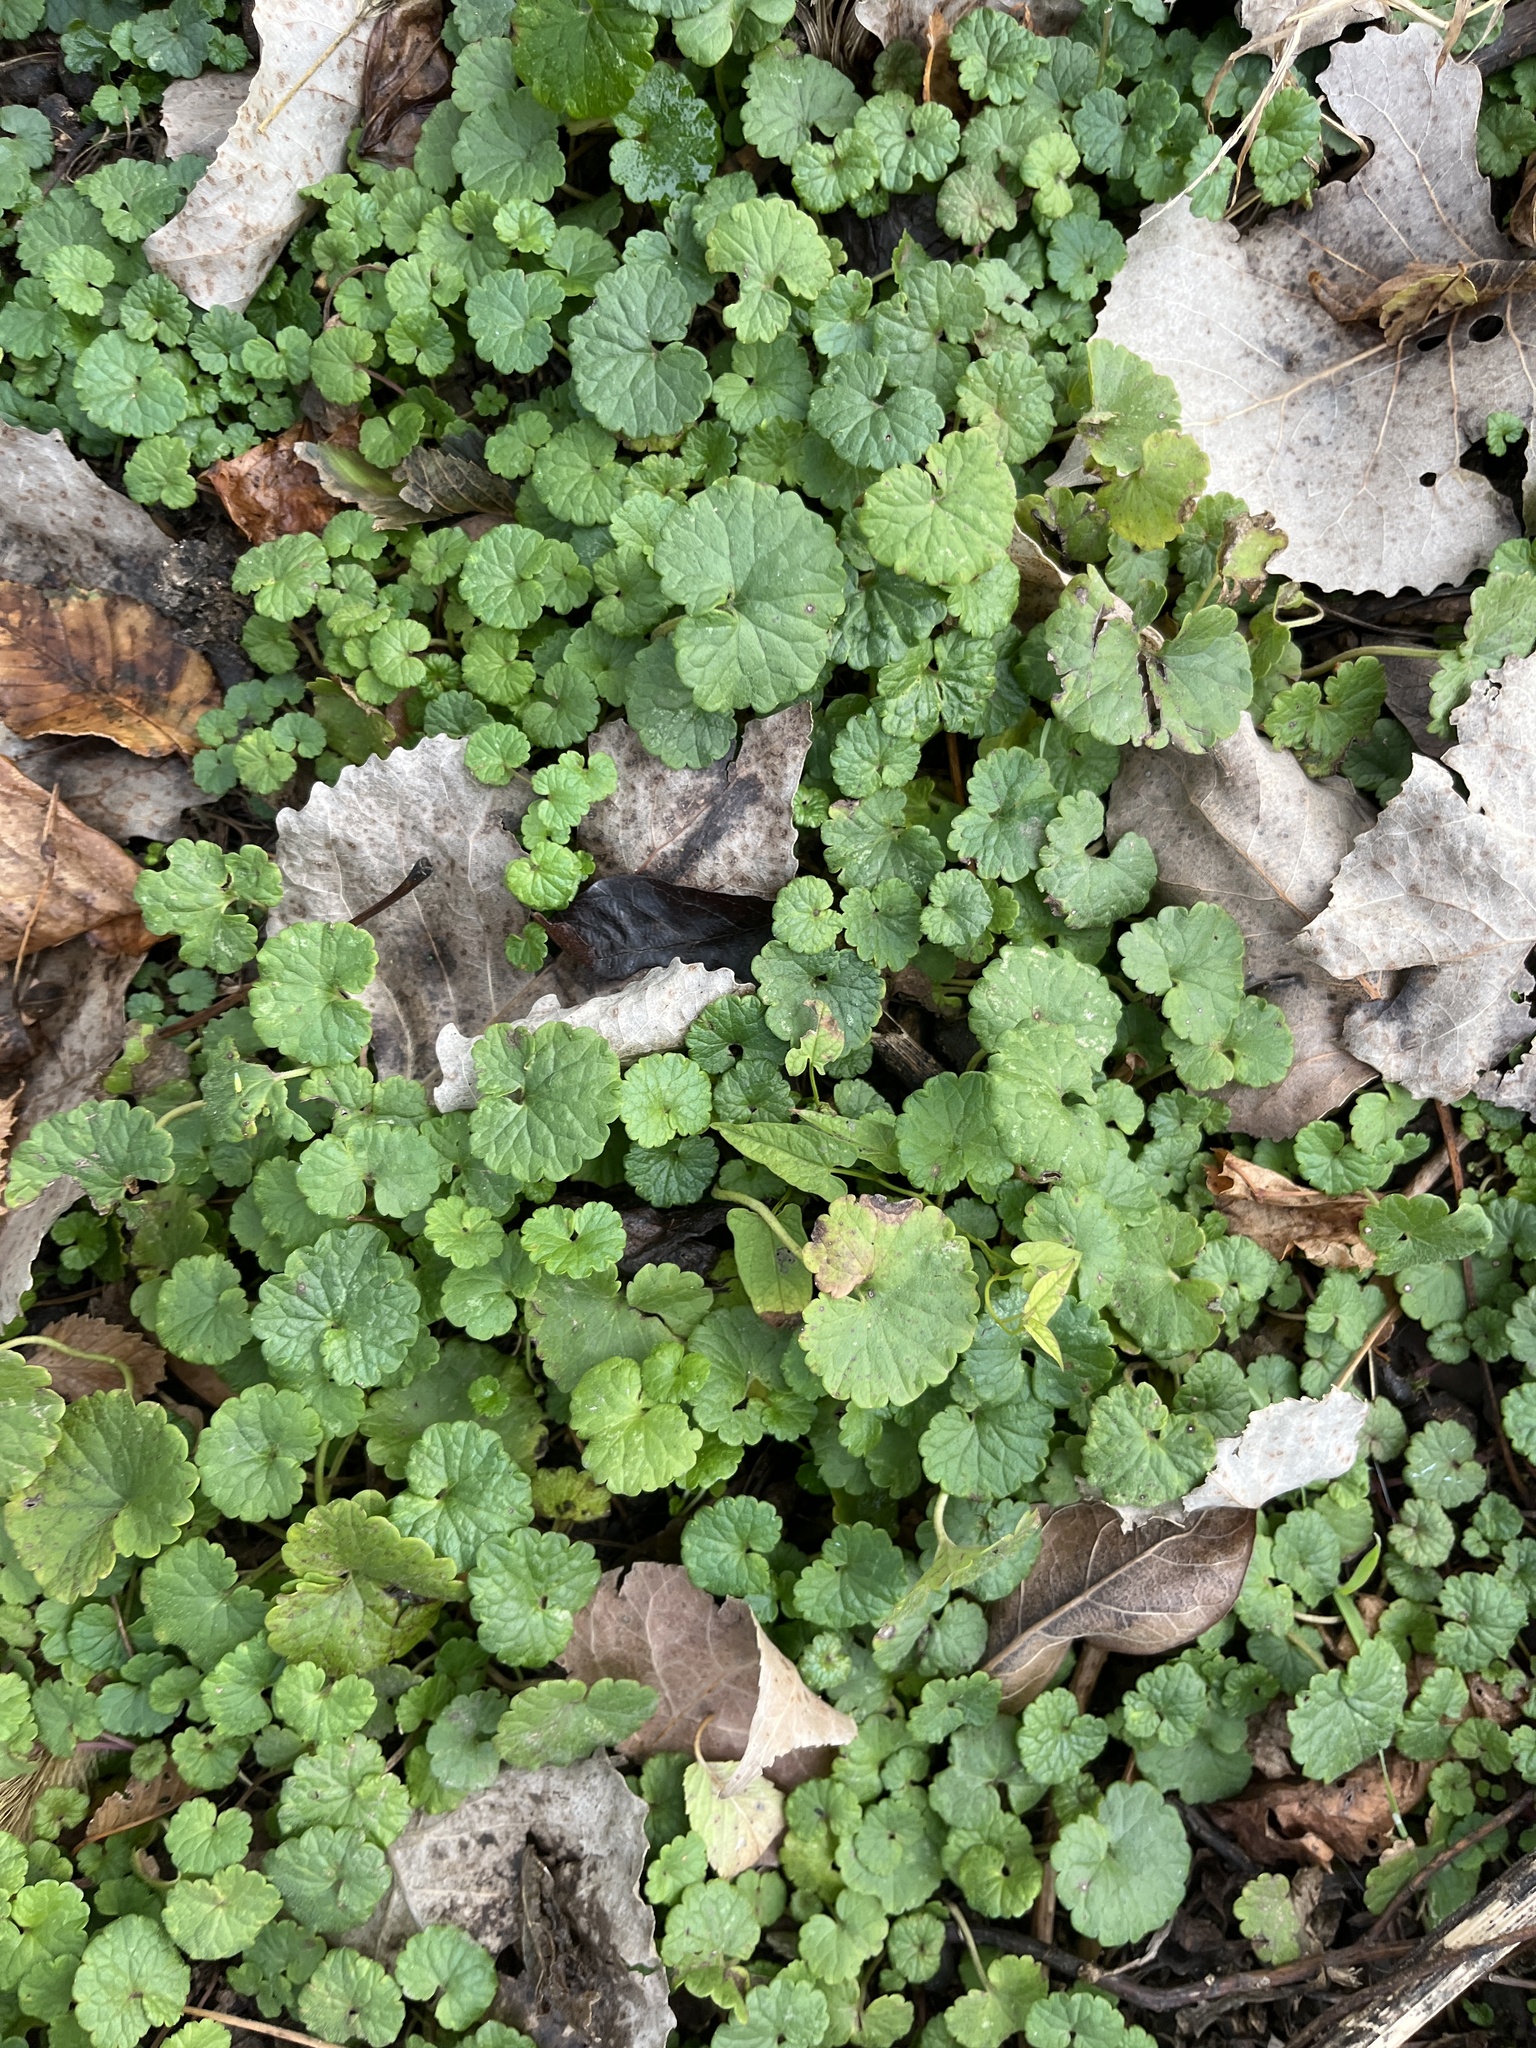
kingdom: Plantae
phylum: Tracheophyta
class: Magnoliopsida
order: Lamiales
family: Lamiaceae
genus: Glechoma
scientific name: Glechoma hederacea
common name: Ground ivy
